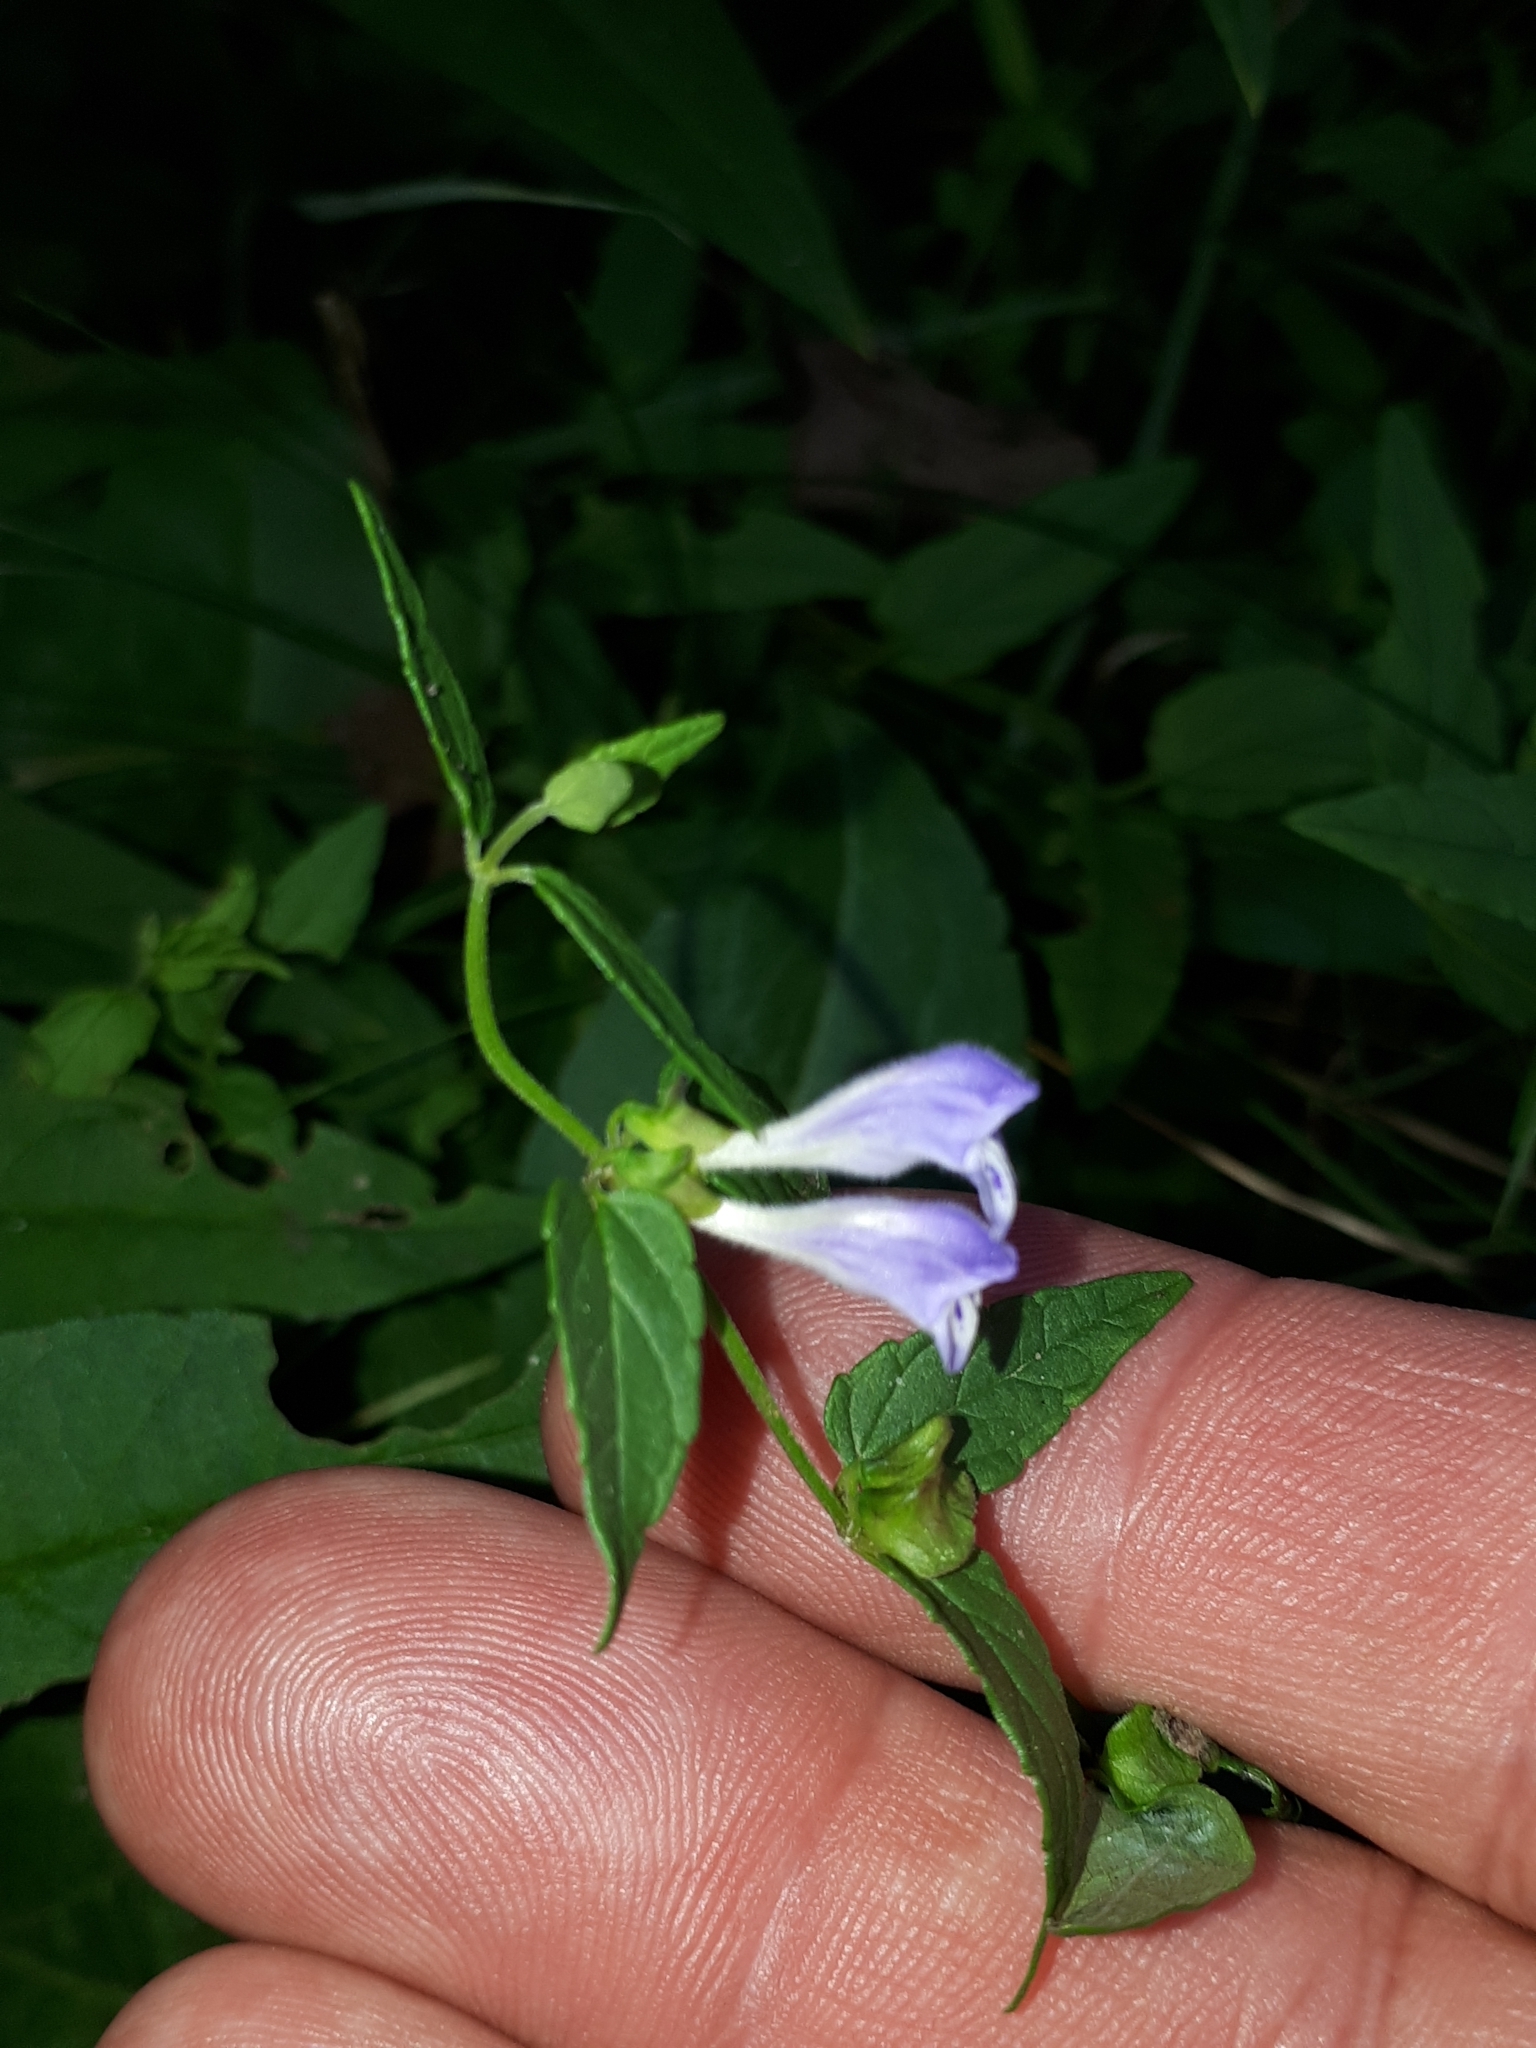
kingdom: Plantae
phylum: Tracheophyta
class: Magnoliopsida
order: Lamiales
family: Lamiaceae
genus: Scutellaria
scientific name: Scutellaria galericulata
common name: Skullcap
